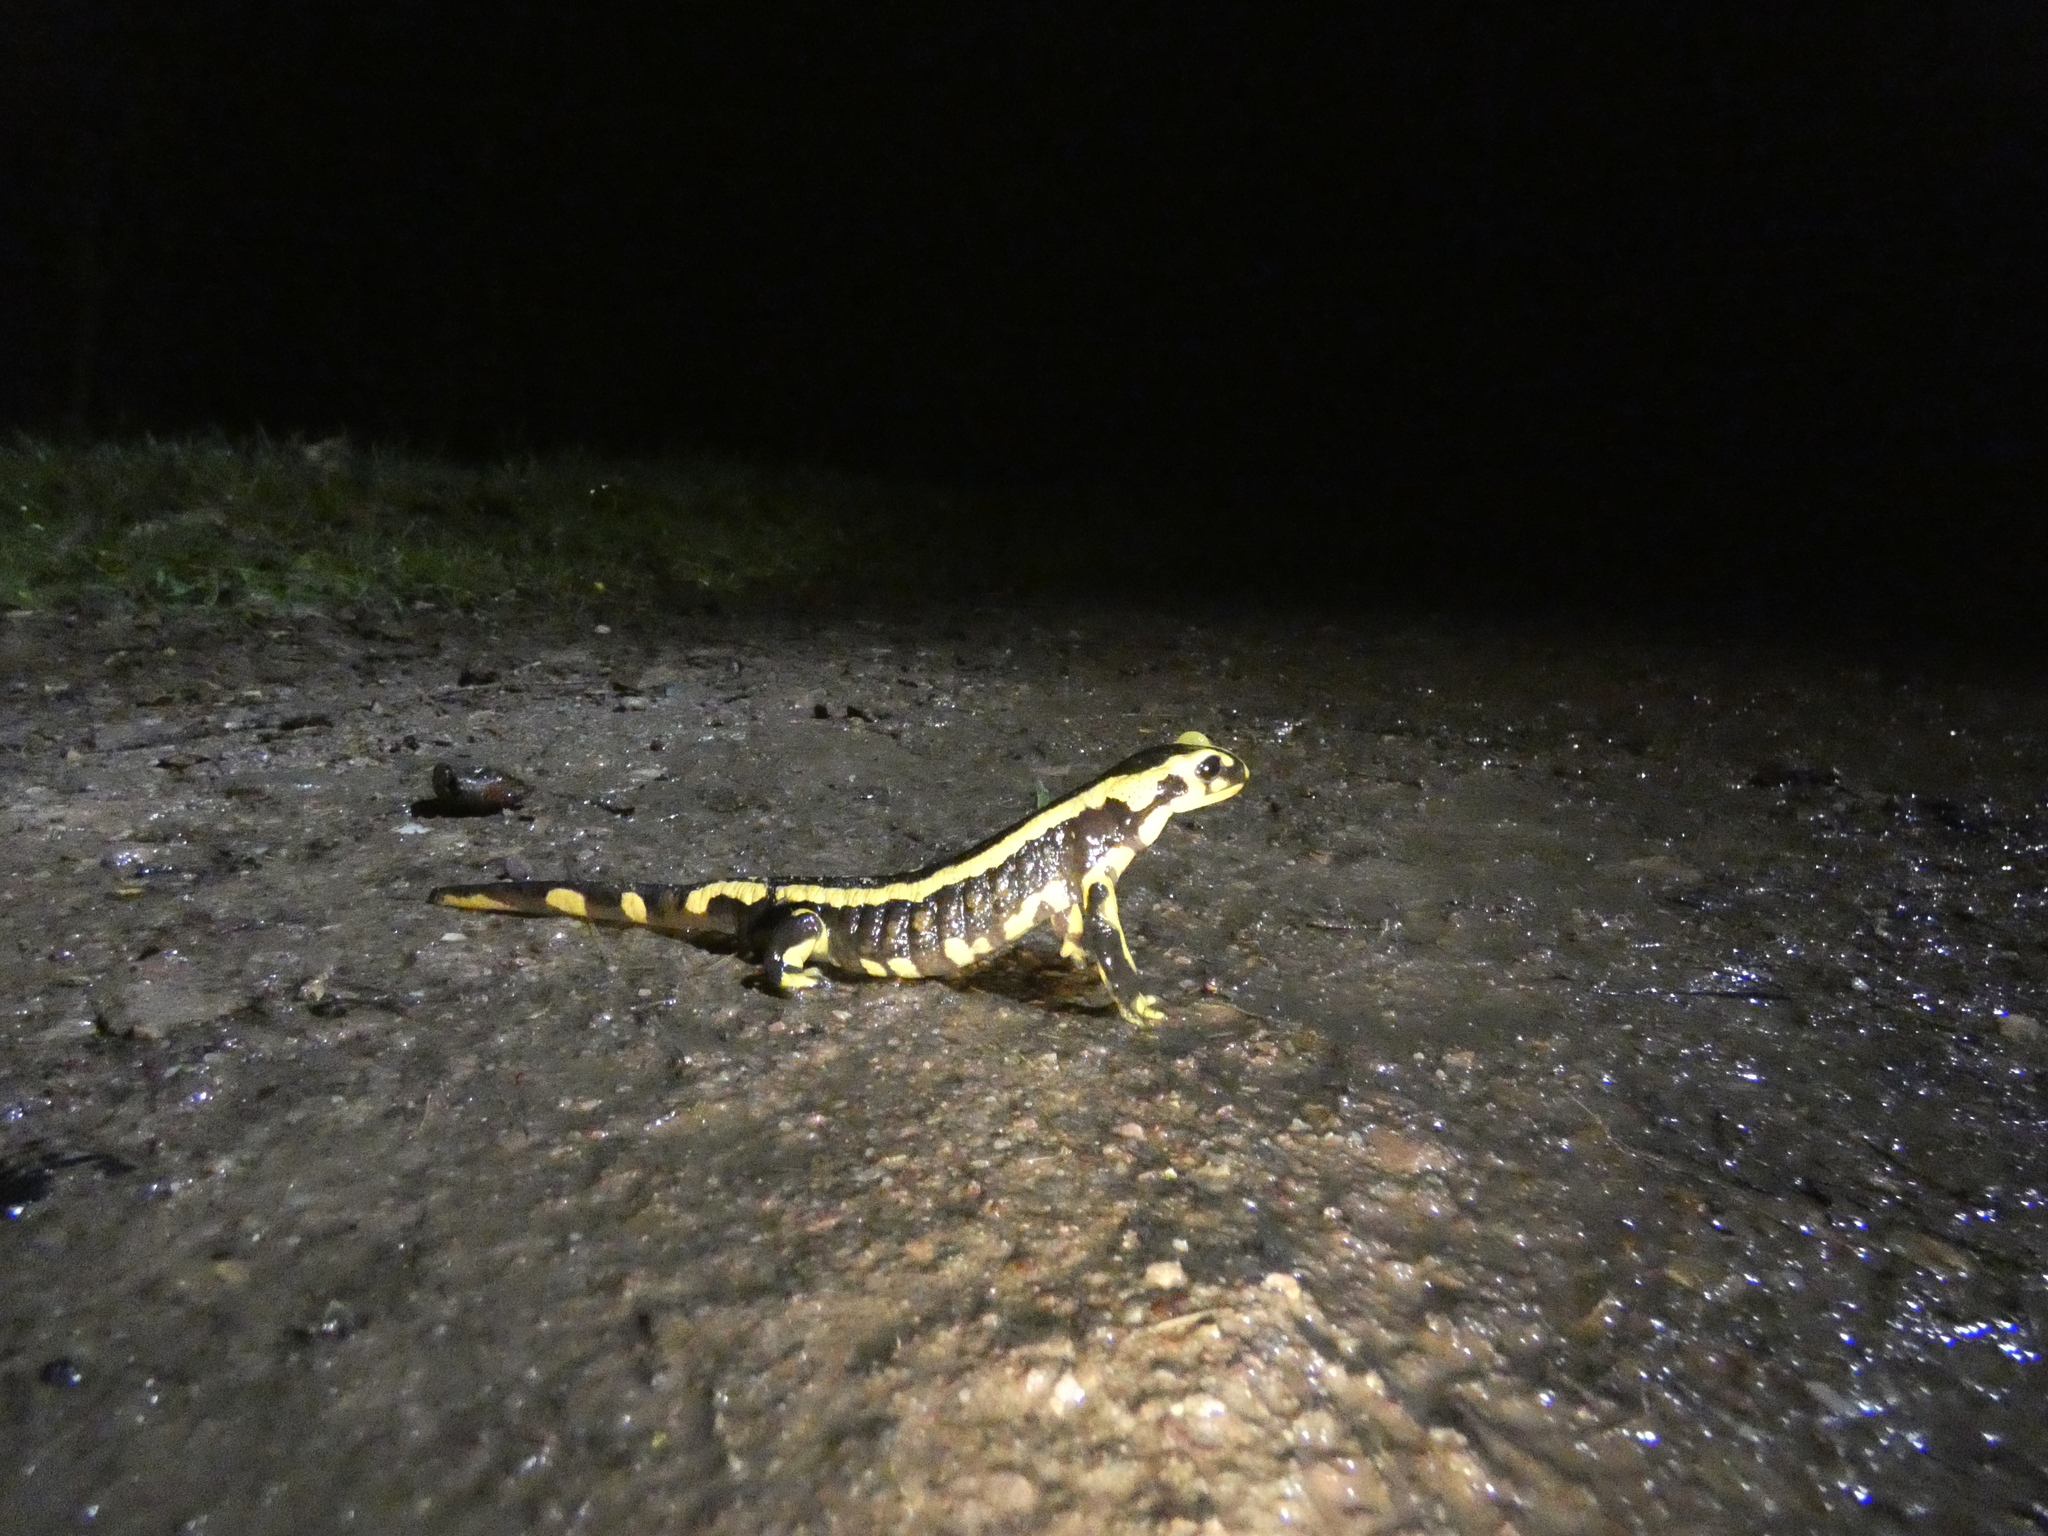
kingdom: Animalia
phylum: Chordata
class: Amphibia
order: Caudata
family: Salamandridae
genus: Salamandra
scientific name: Salamandra salamandra
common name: Fire salamander
